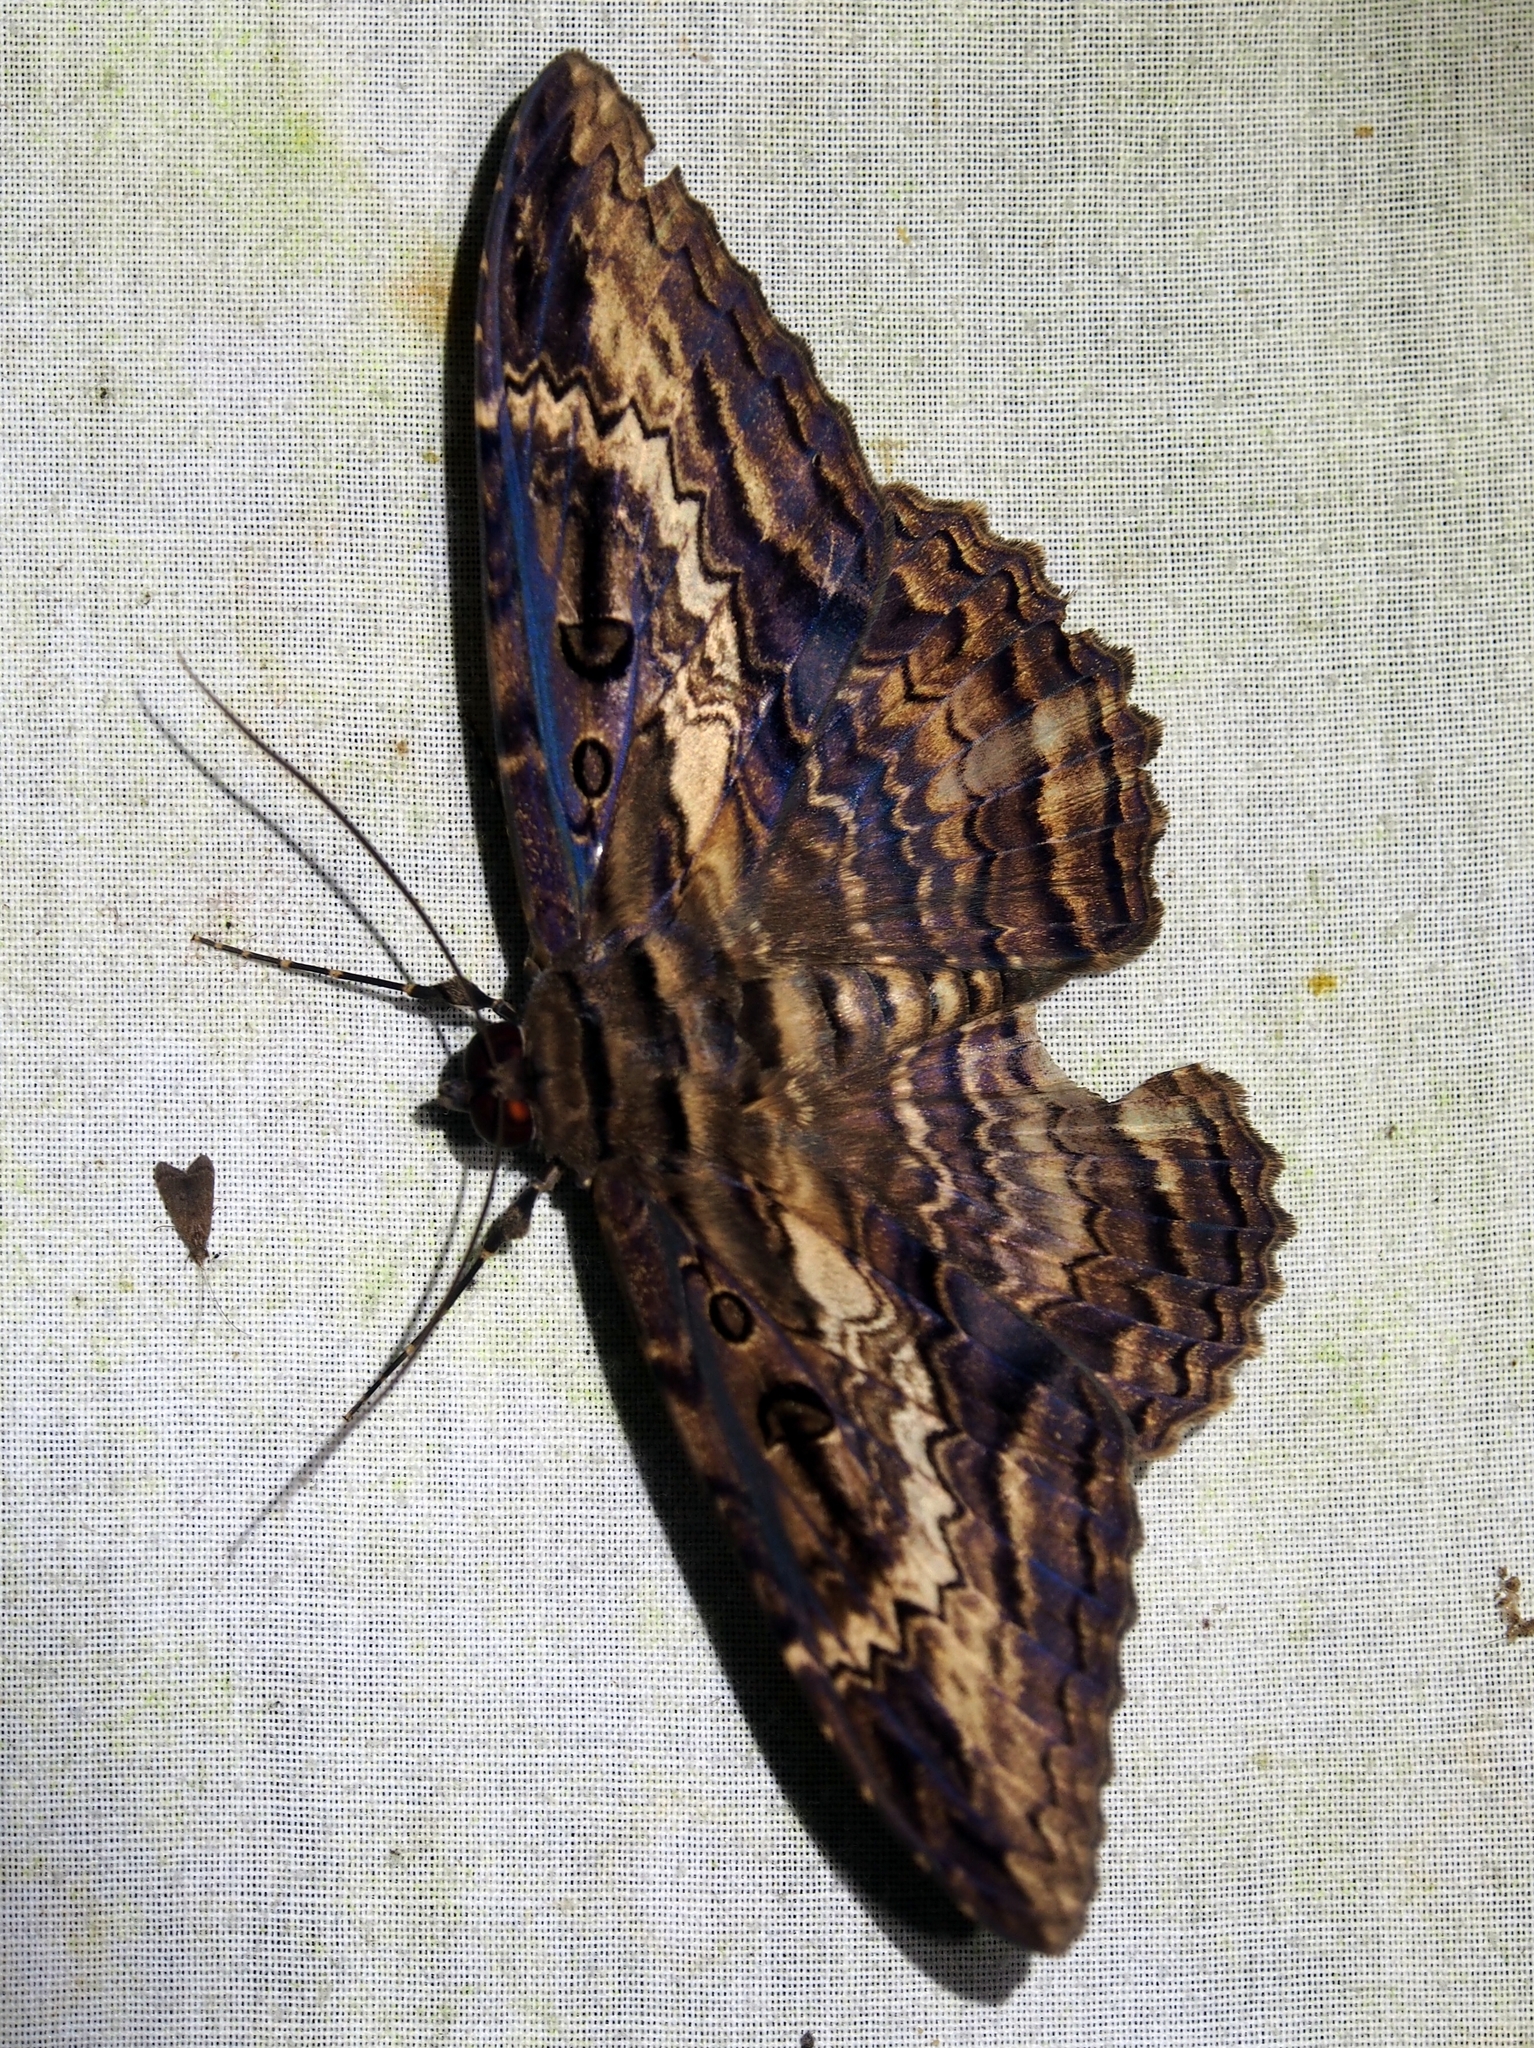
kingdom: Animalia
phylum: Arthropoda
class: Insecta
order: Lepidoptera
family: Erebidae
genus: Feigeria
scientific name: Feigeria buteo
